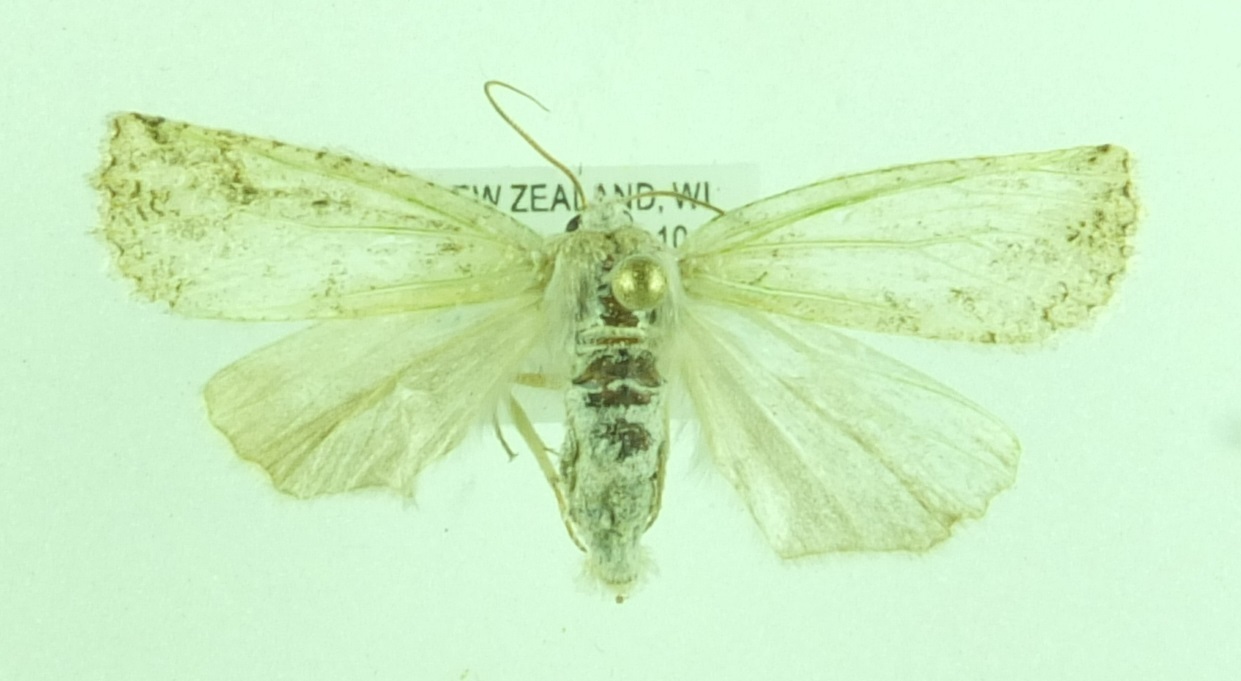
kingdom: Animalia
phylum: Arthropoda
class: Insecta
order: Lepidoptera
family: Geometridae
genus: Declana
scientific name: Declana floccosa
